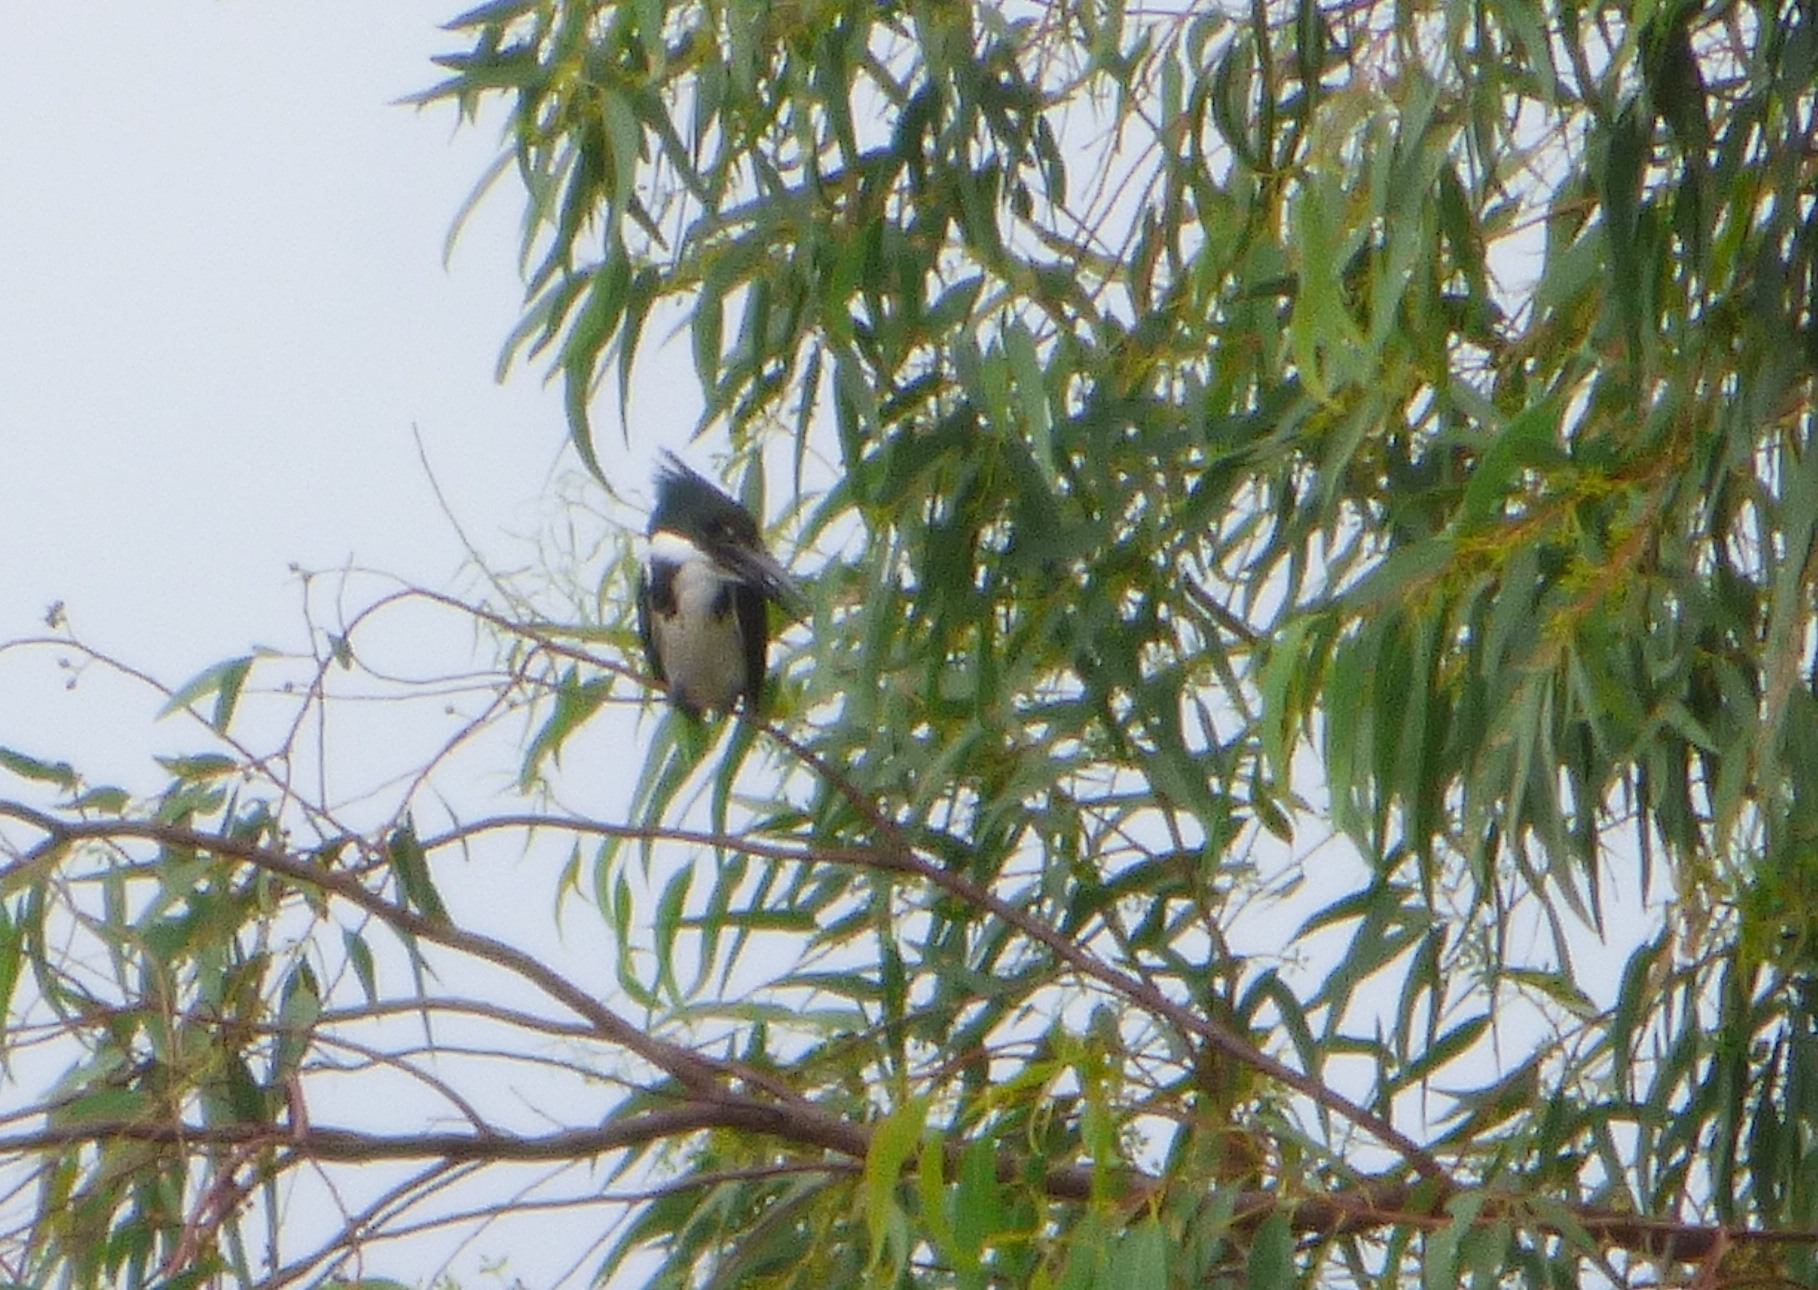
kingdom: Animalia
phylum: Chordata
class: Aves
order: Coraciiformes
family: Alcedinidae
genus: Chloroceryle
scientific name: Chloroceryle amazona
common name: Amazon kingfisher
